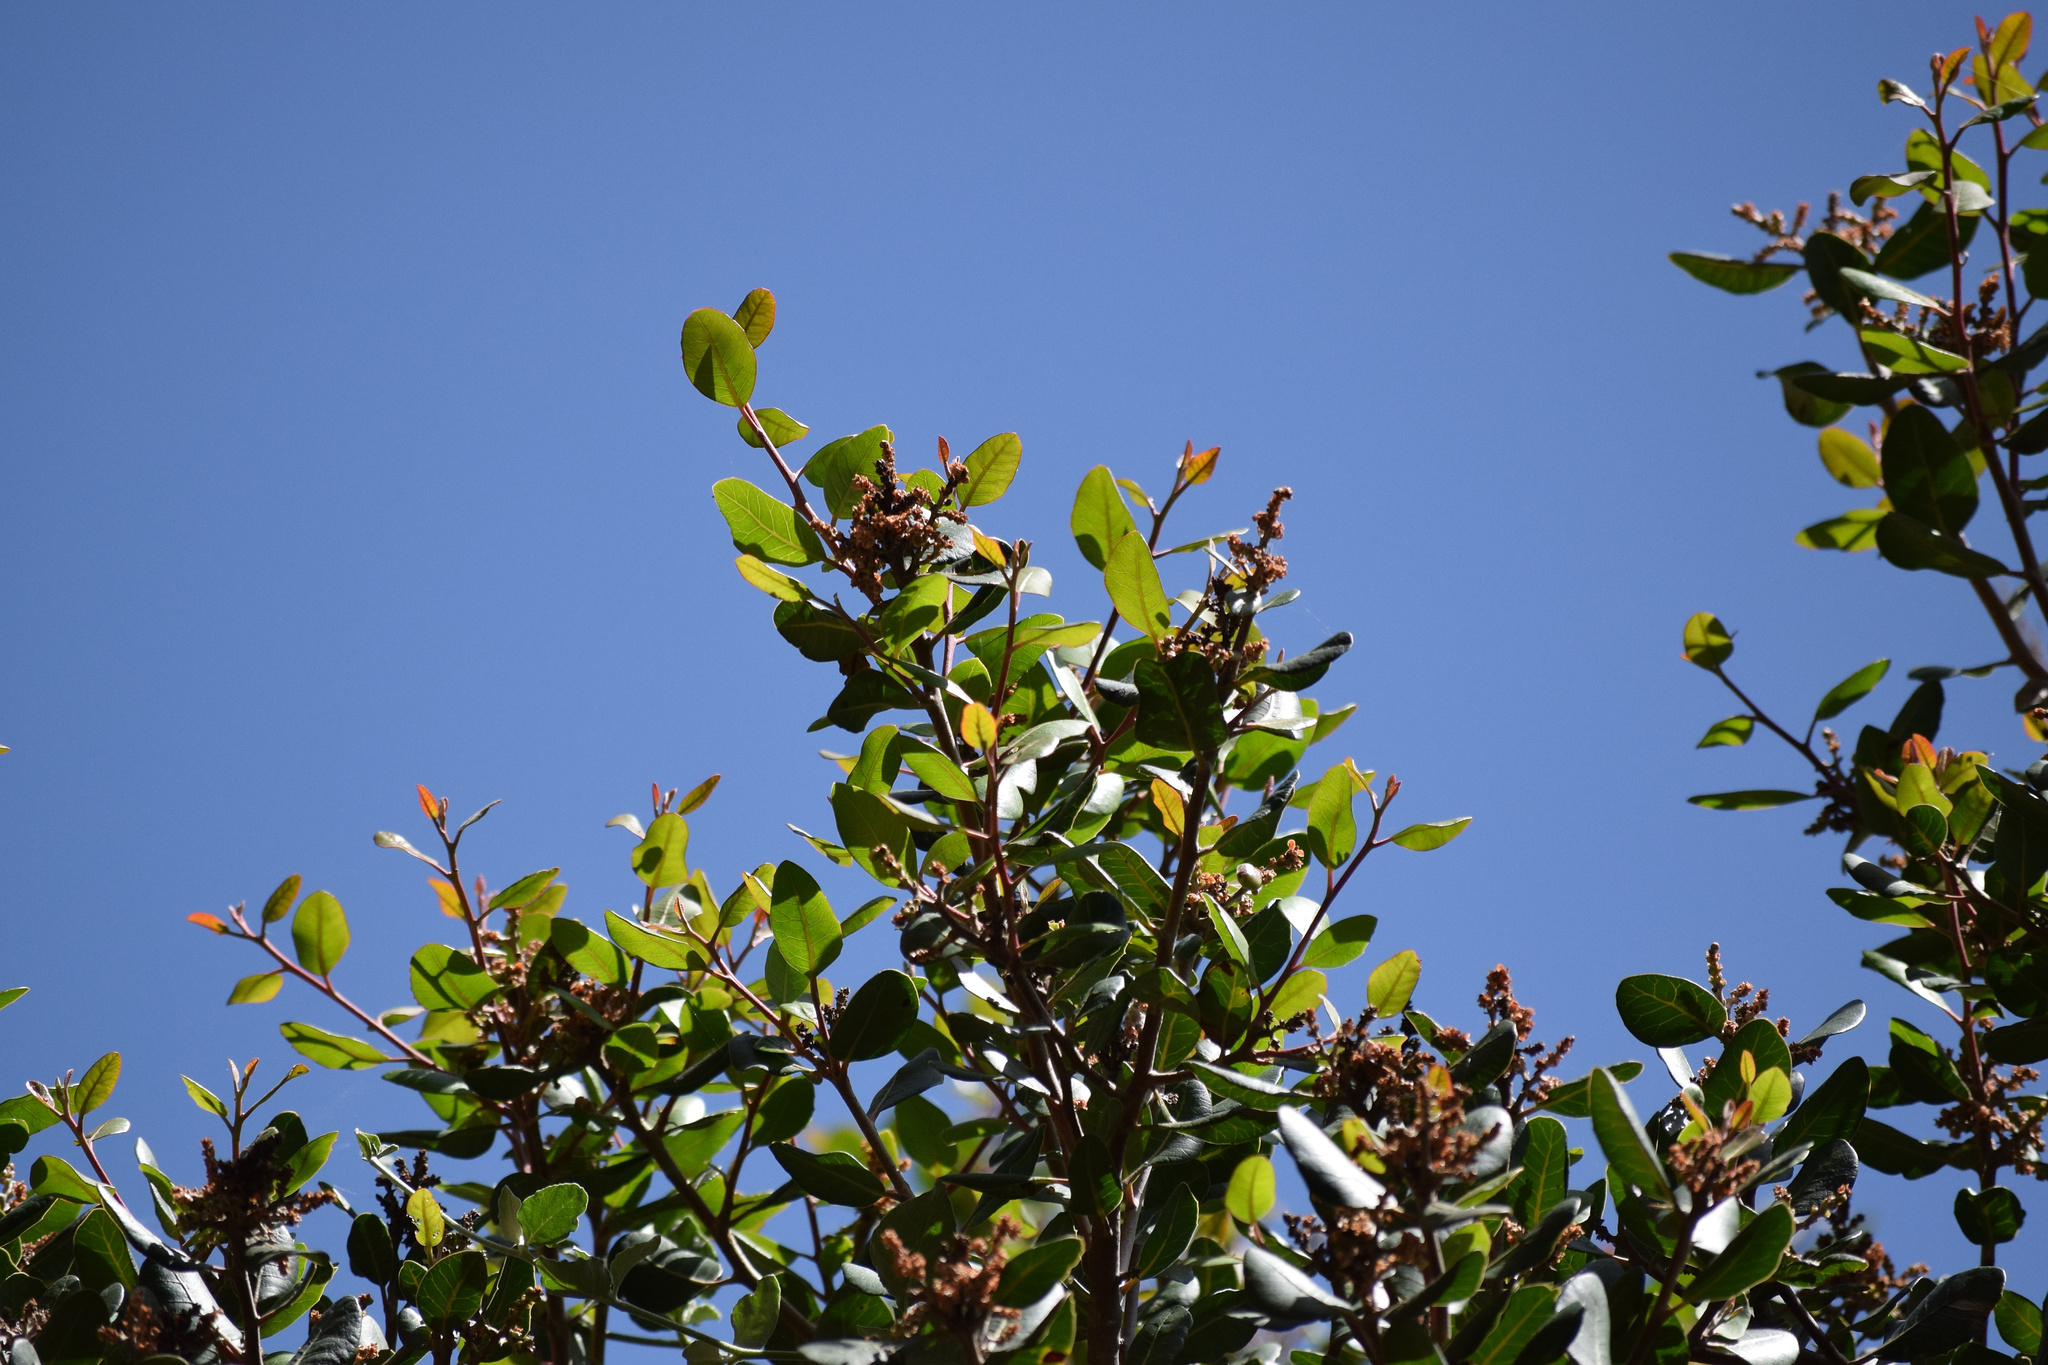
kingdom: Plantae
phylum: Tracheophyta
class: Magnoliopsida
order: Sapindales
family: Anacardiaceae
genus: Rhus
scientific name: Rhus integrifolia
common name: Lemonade sumac
